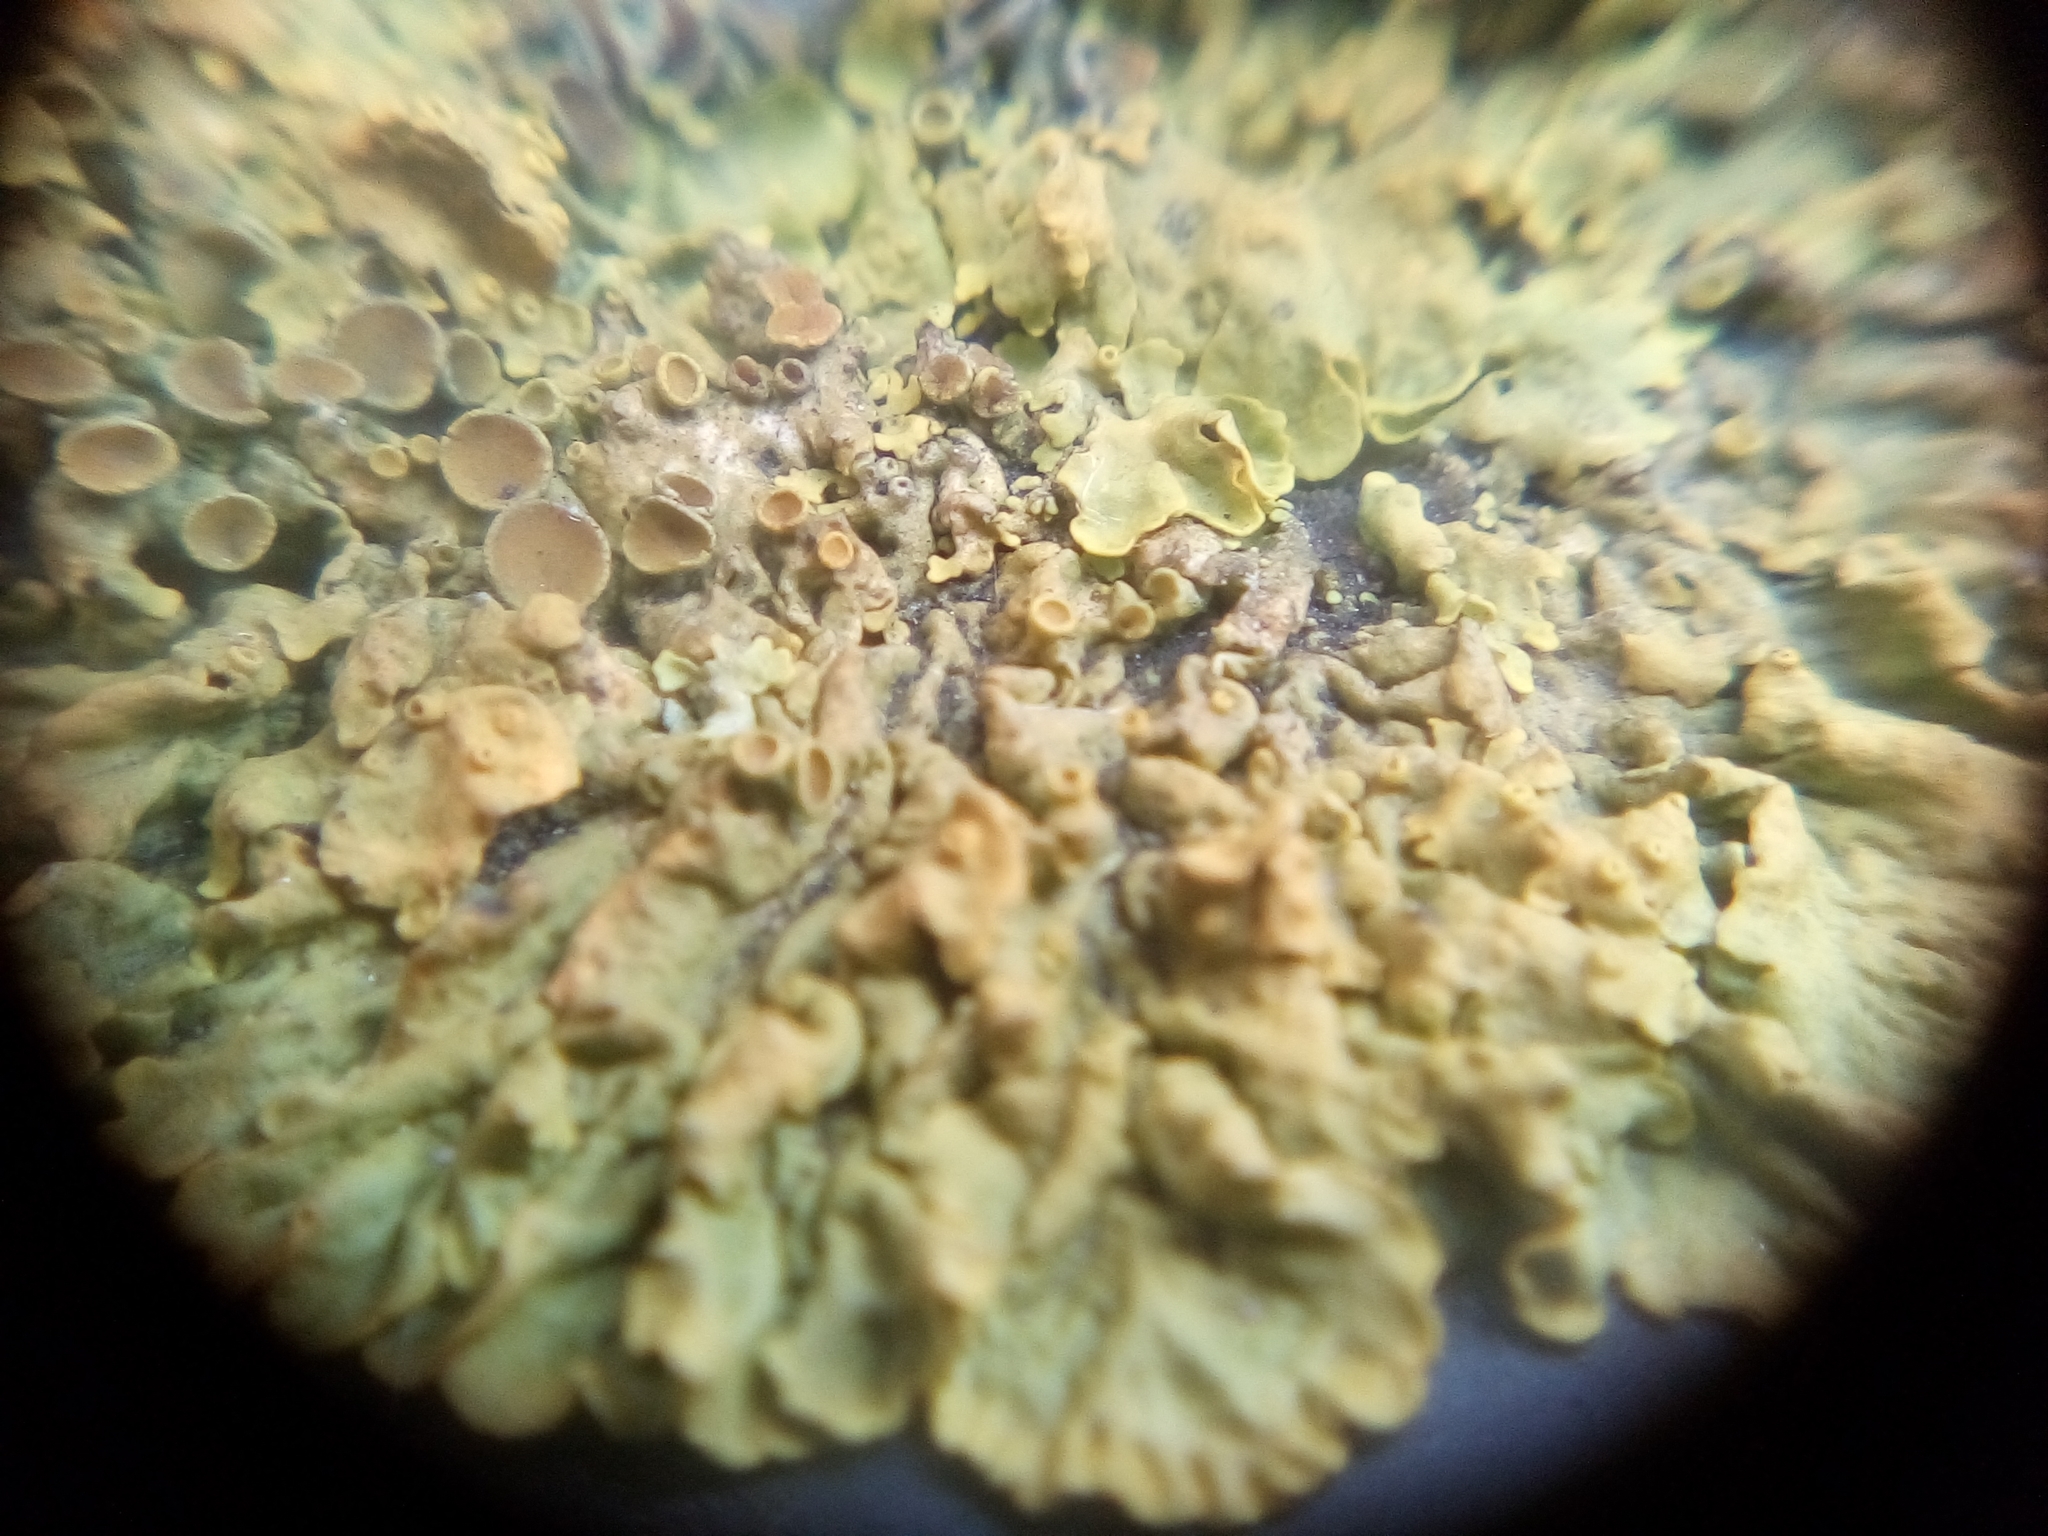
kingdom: Fungi
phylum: Ascomycota
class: Lecanoromycetes
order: Teloschistales
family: Teloschistaceae
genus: Xanthoria
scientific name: Xanthoria parietina
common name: Common orange lichen
